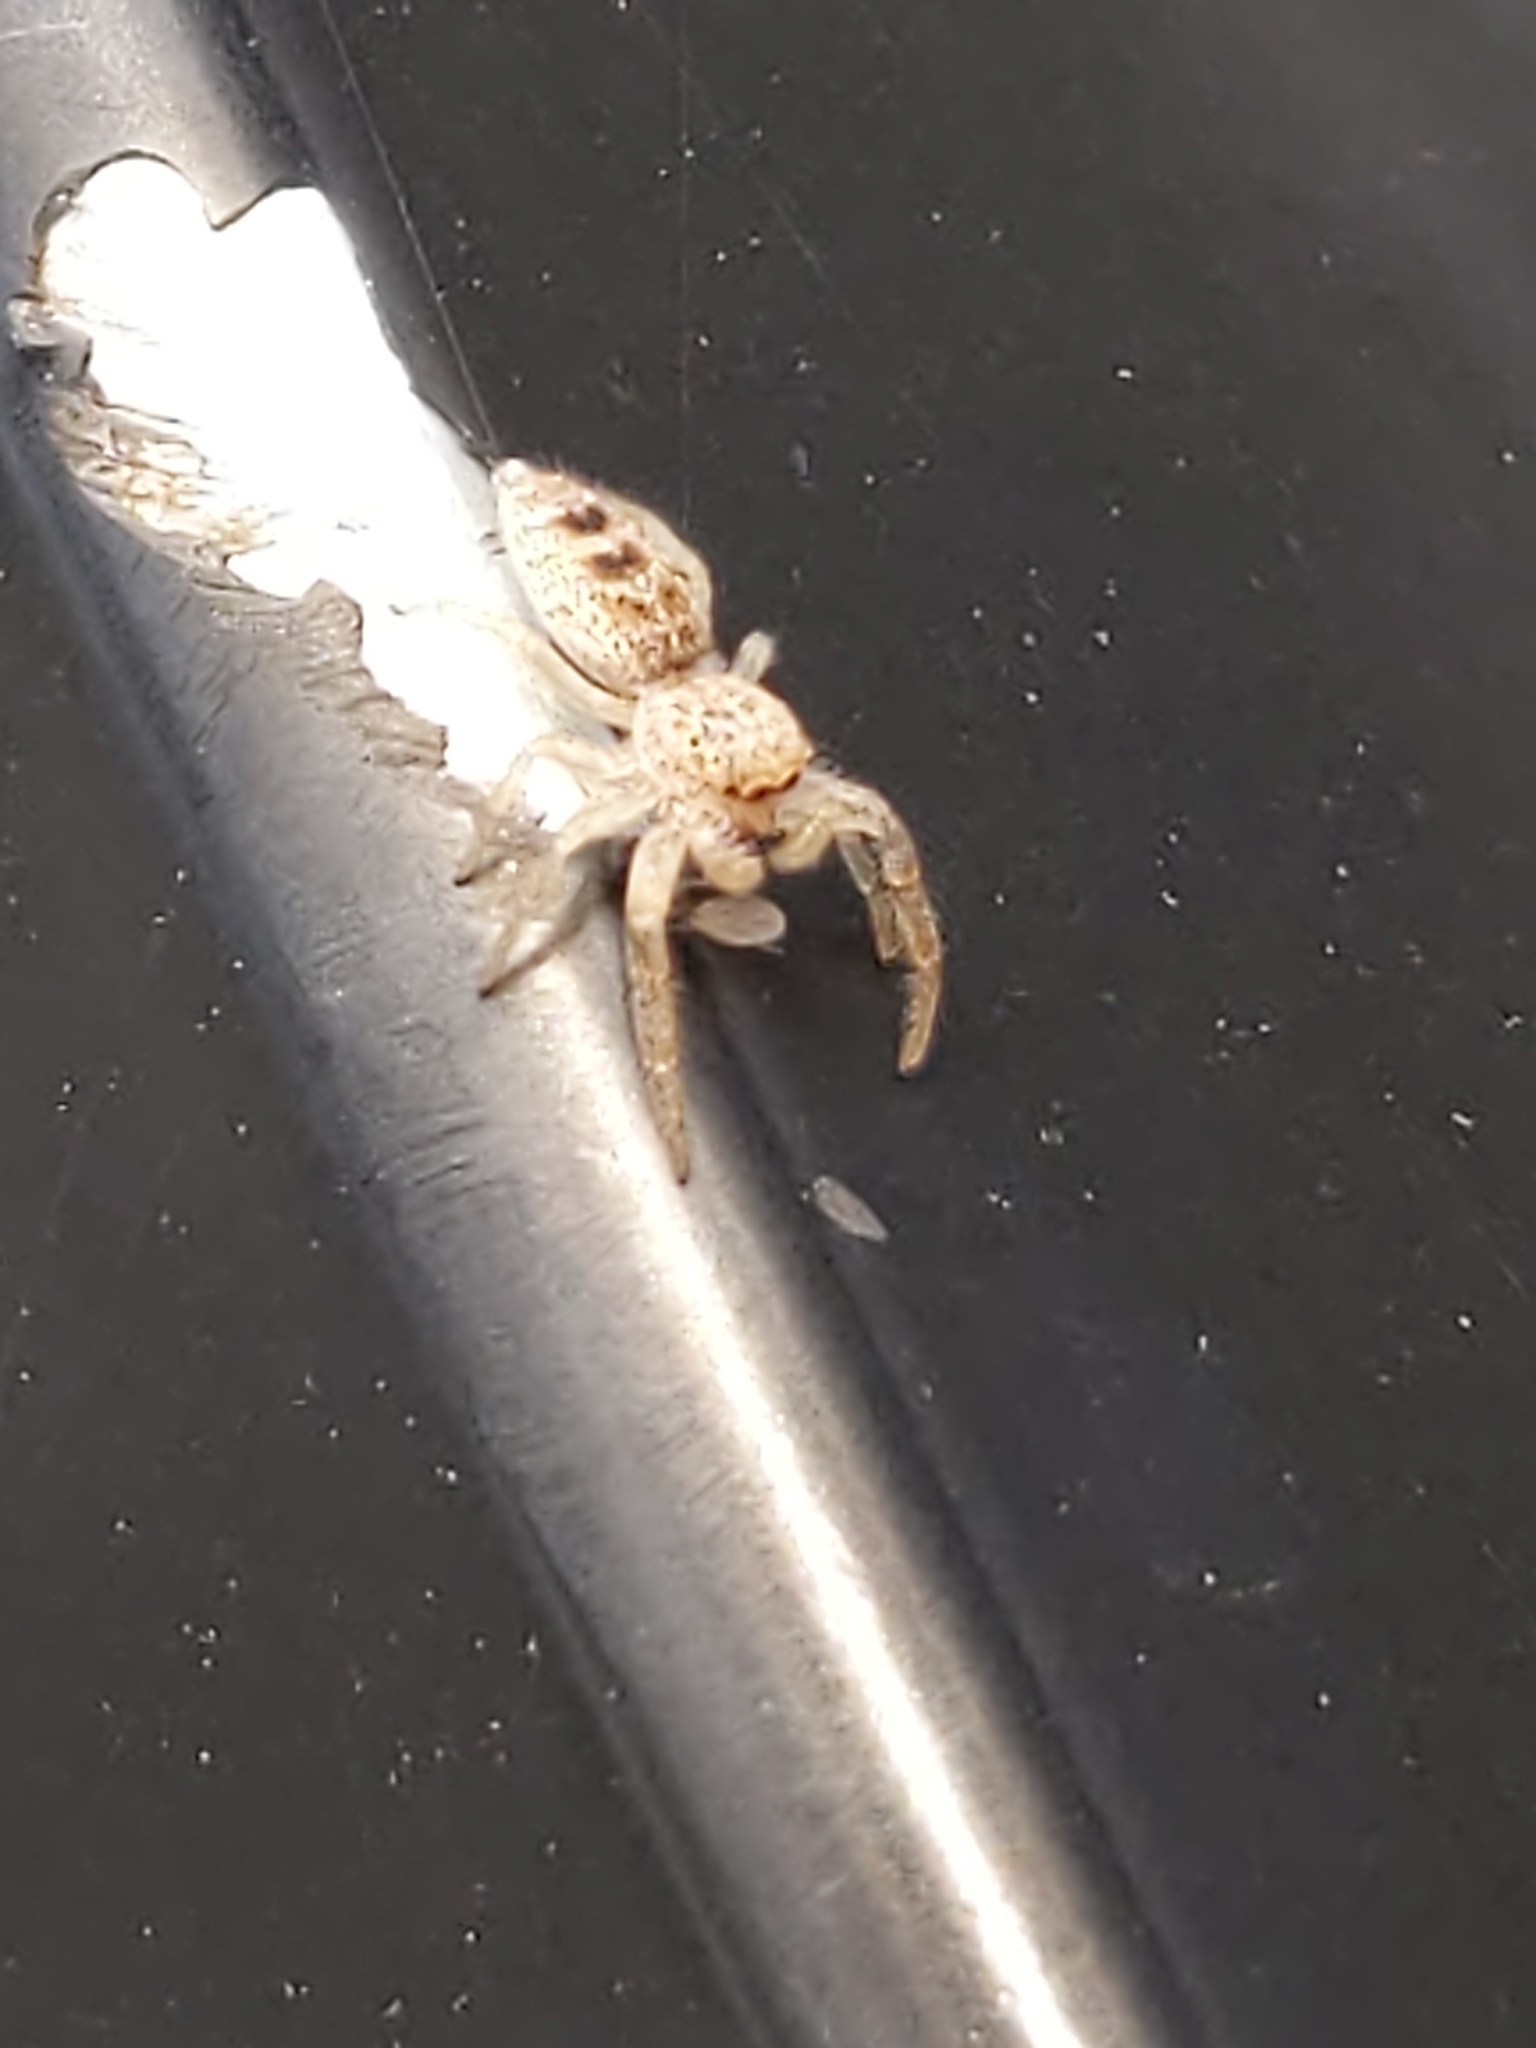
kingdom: Animalia
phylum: Arthropoda
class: Arachnida
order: Araneae
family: Salticidae
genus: Hentzia
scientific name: Hentzia mitrata
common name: White-jawed jumping spider
